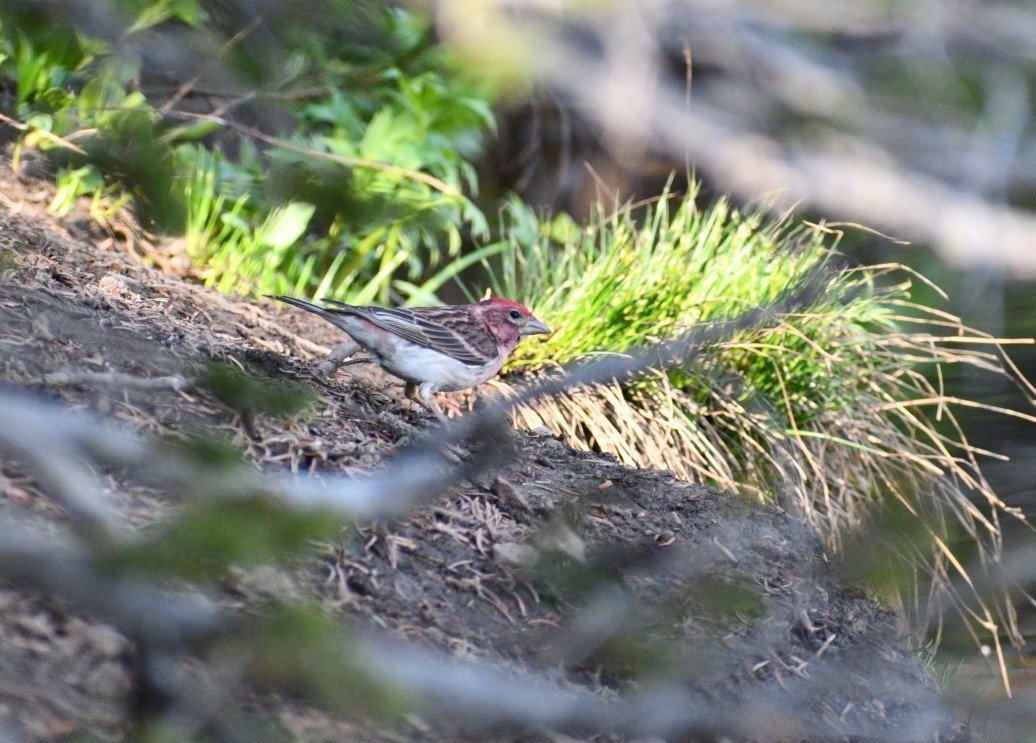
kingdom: Animalia
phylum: Chordata
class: Aves
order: Passeriformes
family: Fringillidae
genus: Haemorhous
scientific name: Haemorhous cassinii
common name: Cassin's finch
